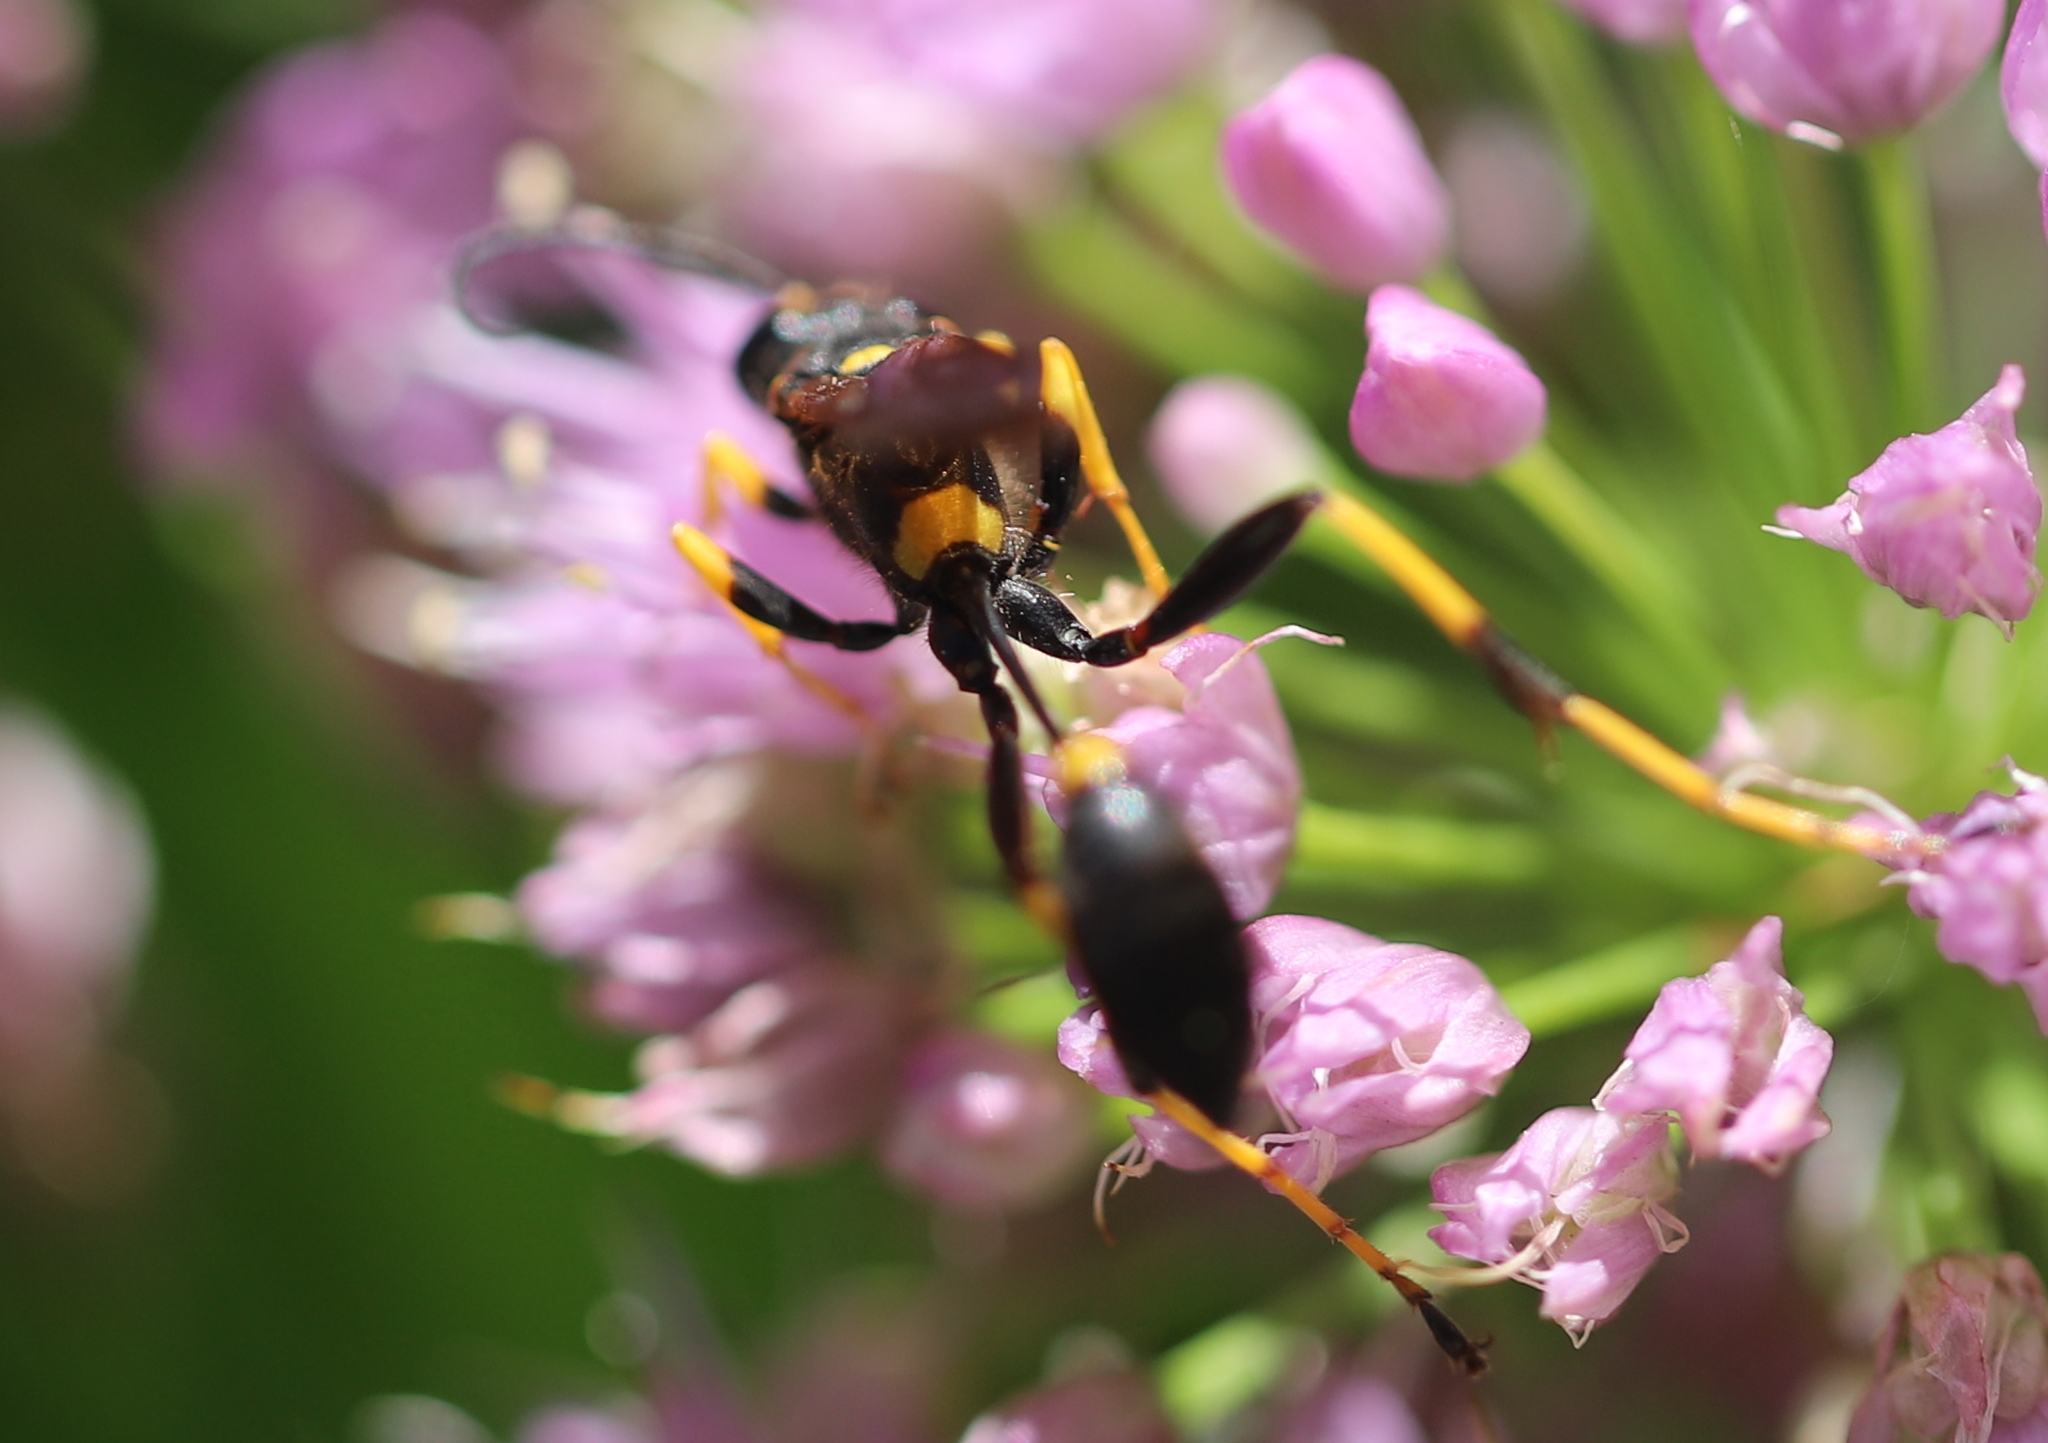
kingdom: Animalia
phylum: Arthropoda
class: Insecta
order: Hymenoptera
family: Sphecidae
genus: Sceliphron
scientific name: Sceliphron caementarium
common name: Mud dauber
